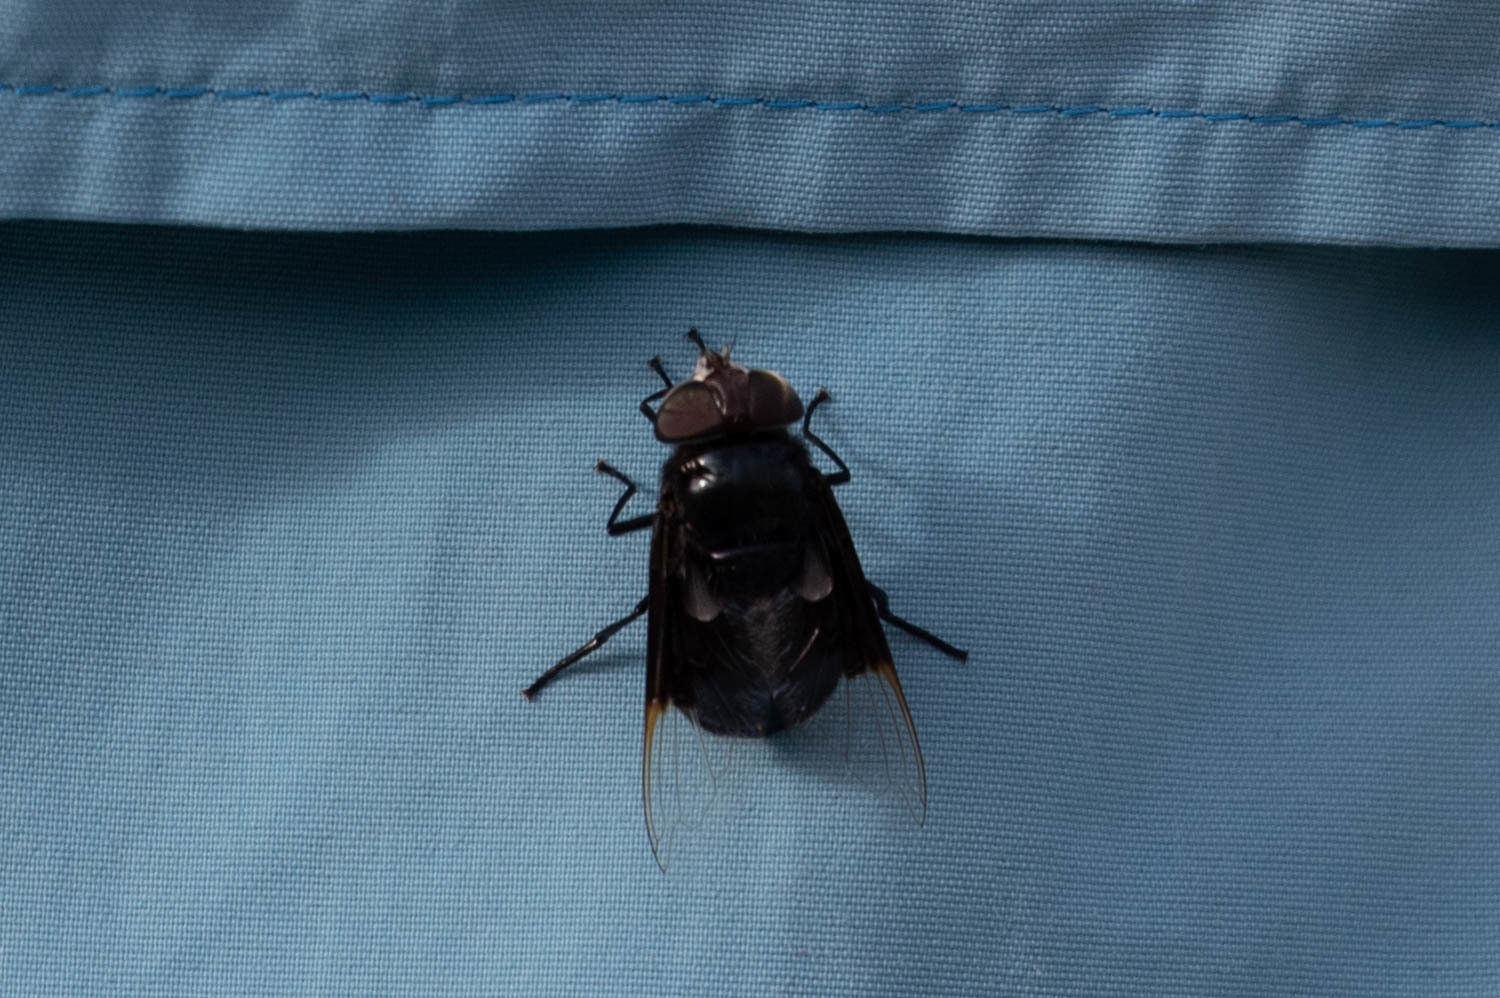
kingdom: Animalia
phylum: Arthropoda
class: Insecta
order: Diptera
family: Syrphidae
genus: Copestylum
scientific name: Copestylum
